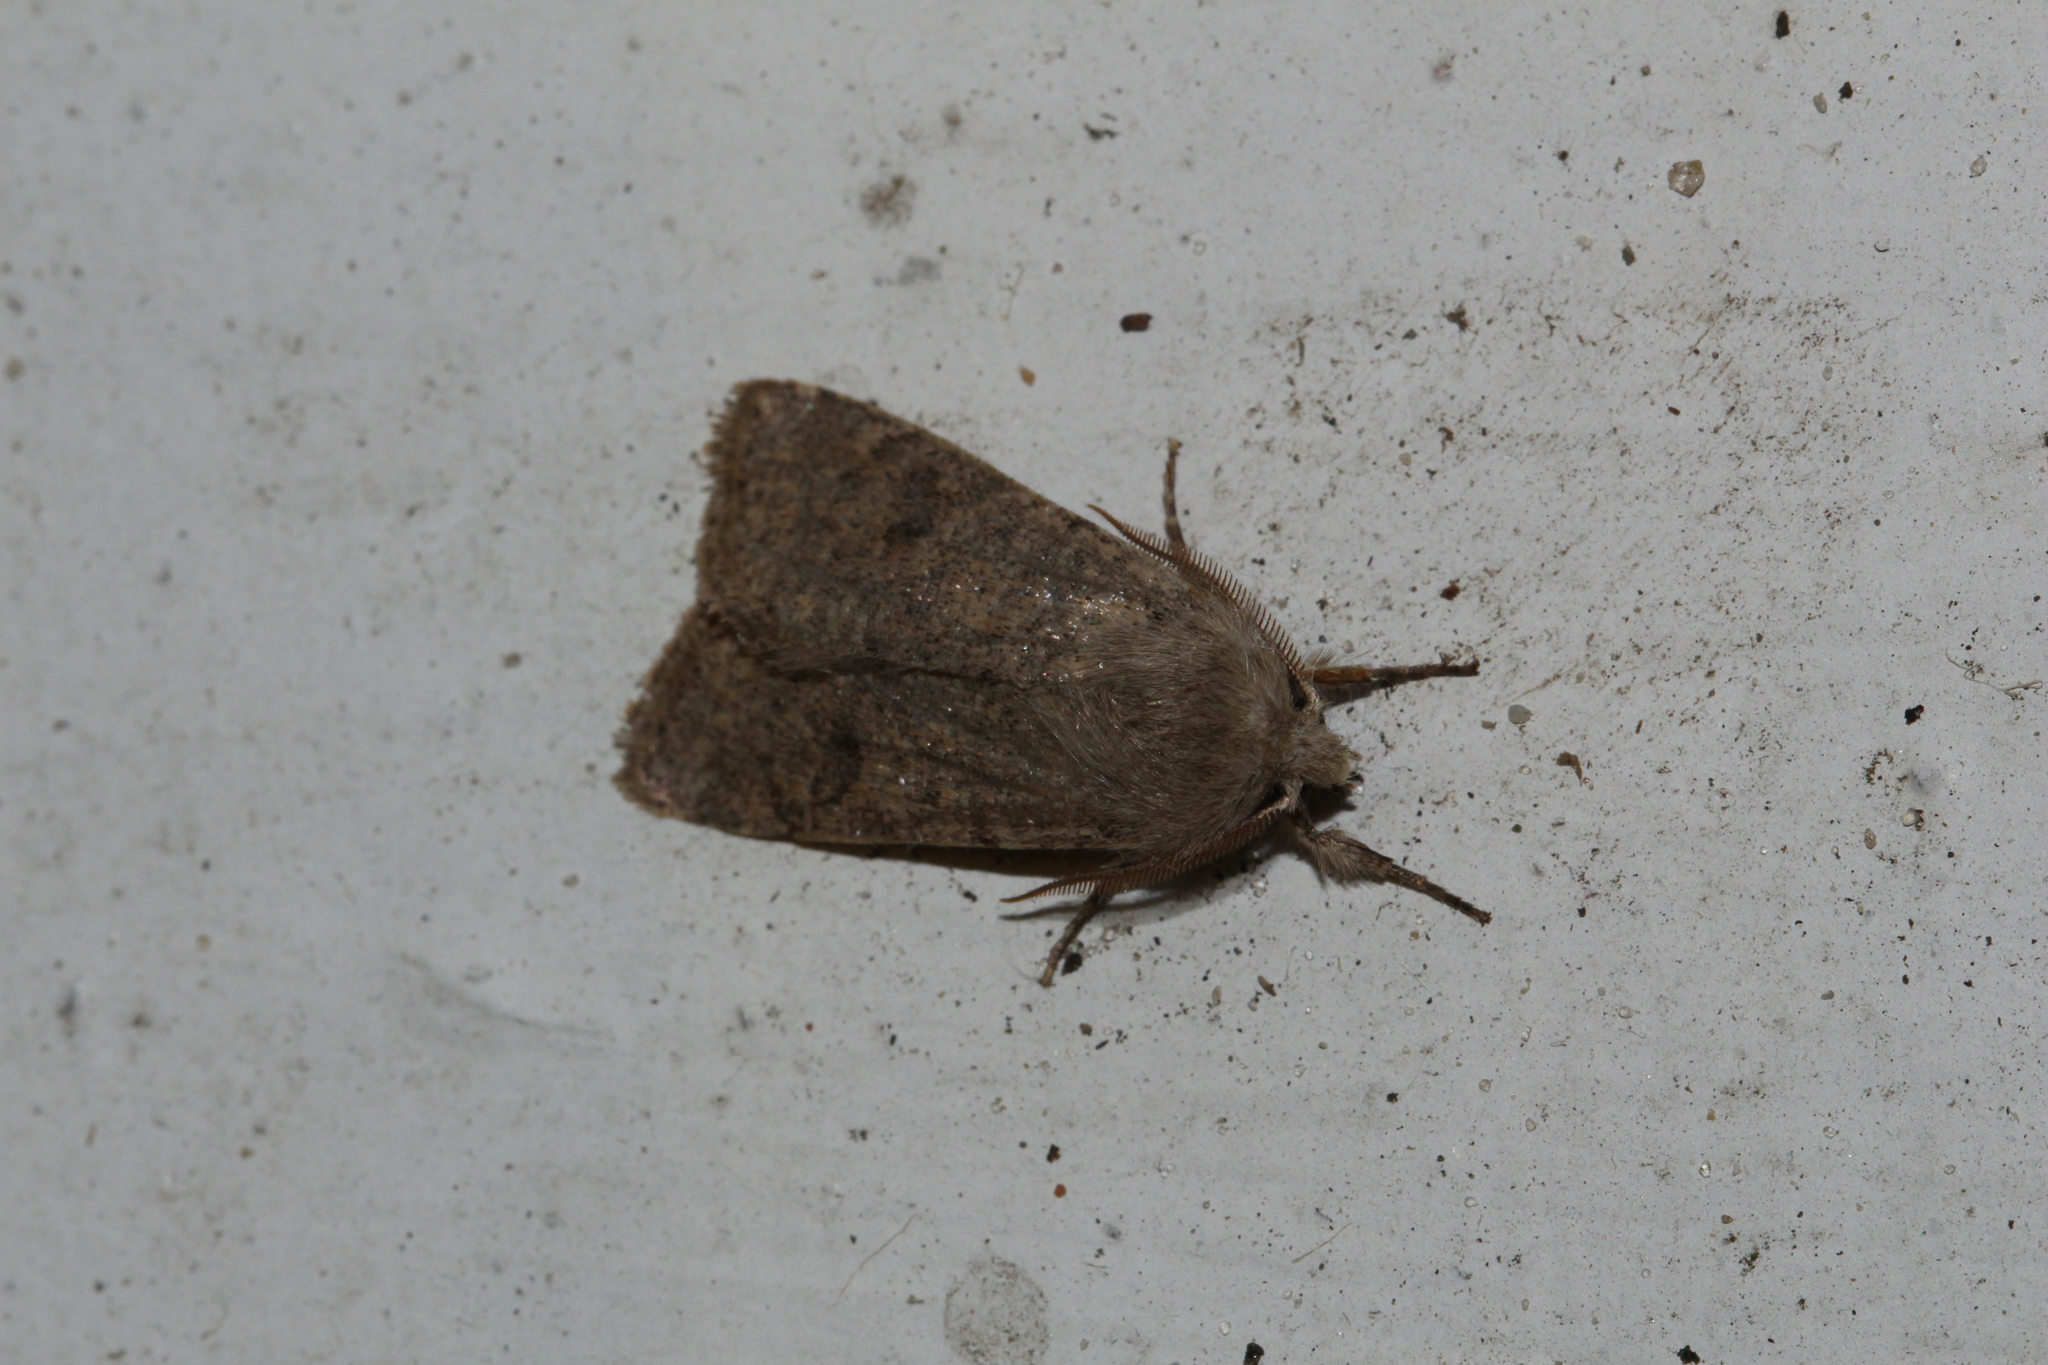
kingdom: Animalia
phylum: Arthropoda
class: Insecta
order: Lepidoptera
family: Noctuidae
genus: Orthosia
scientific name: Orthosia cruda
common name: Small quaker
